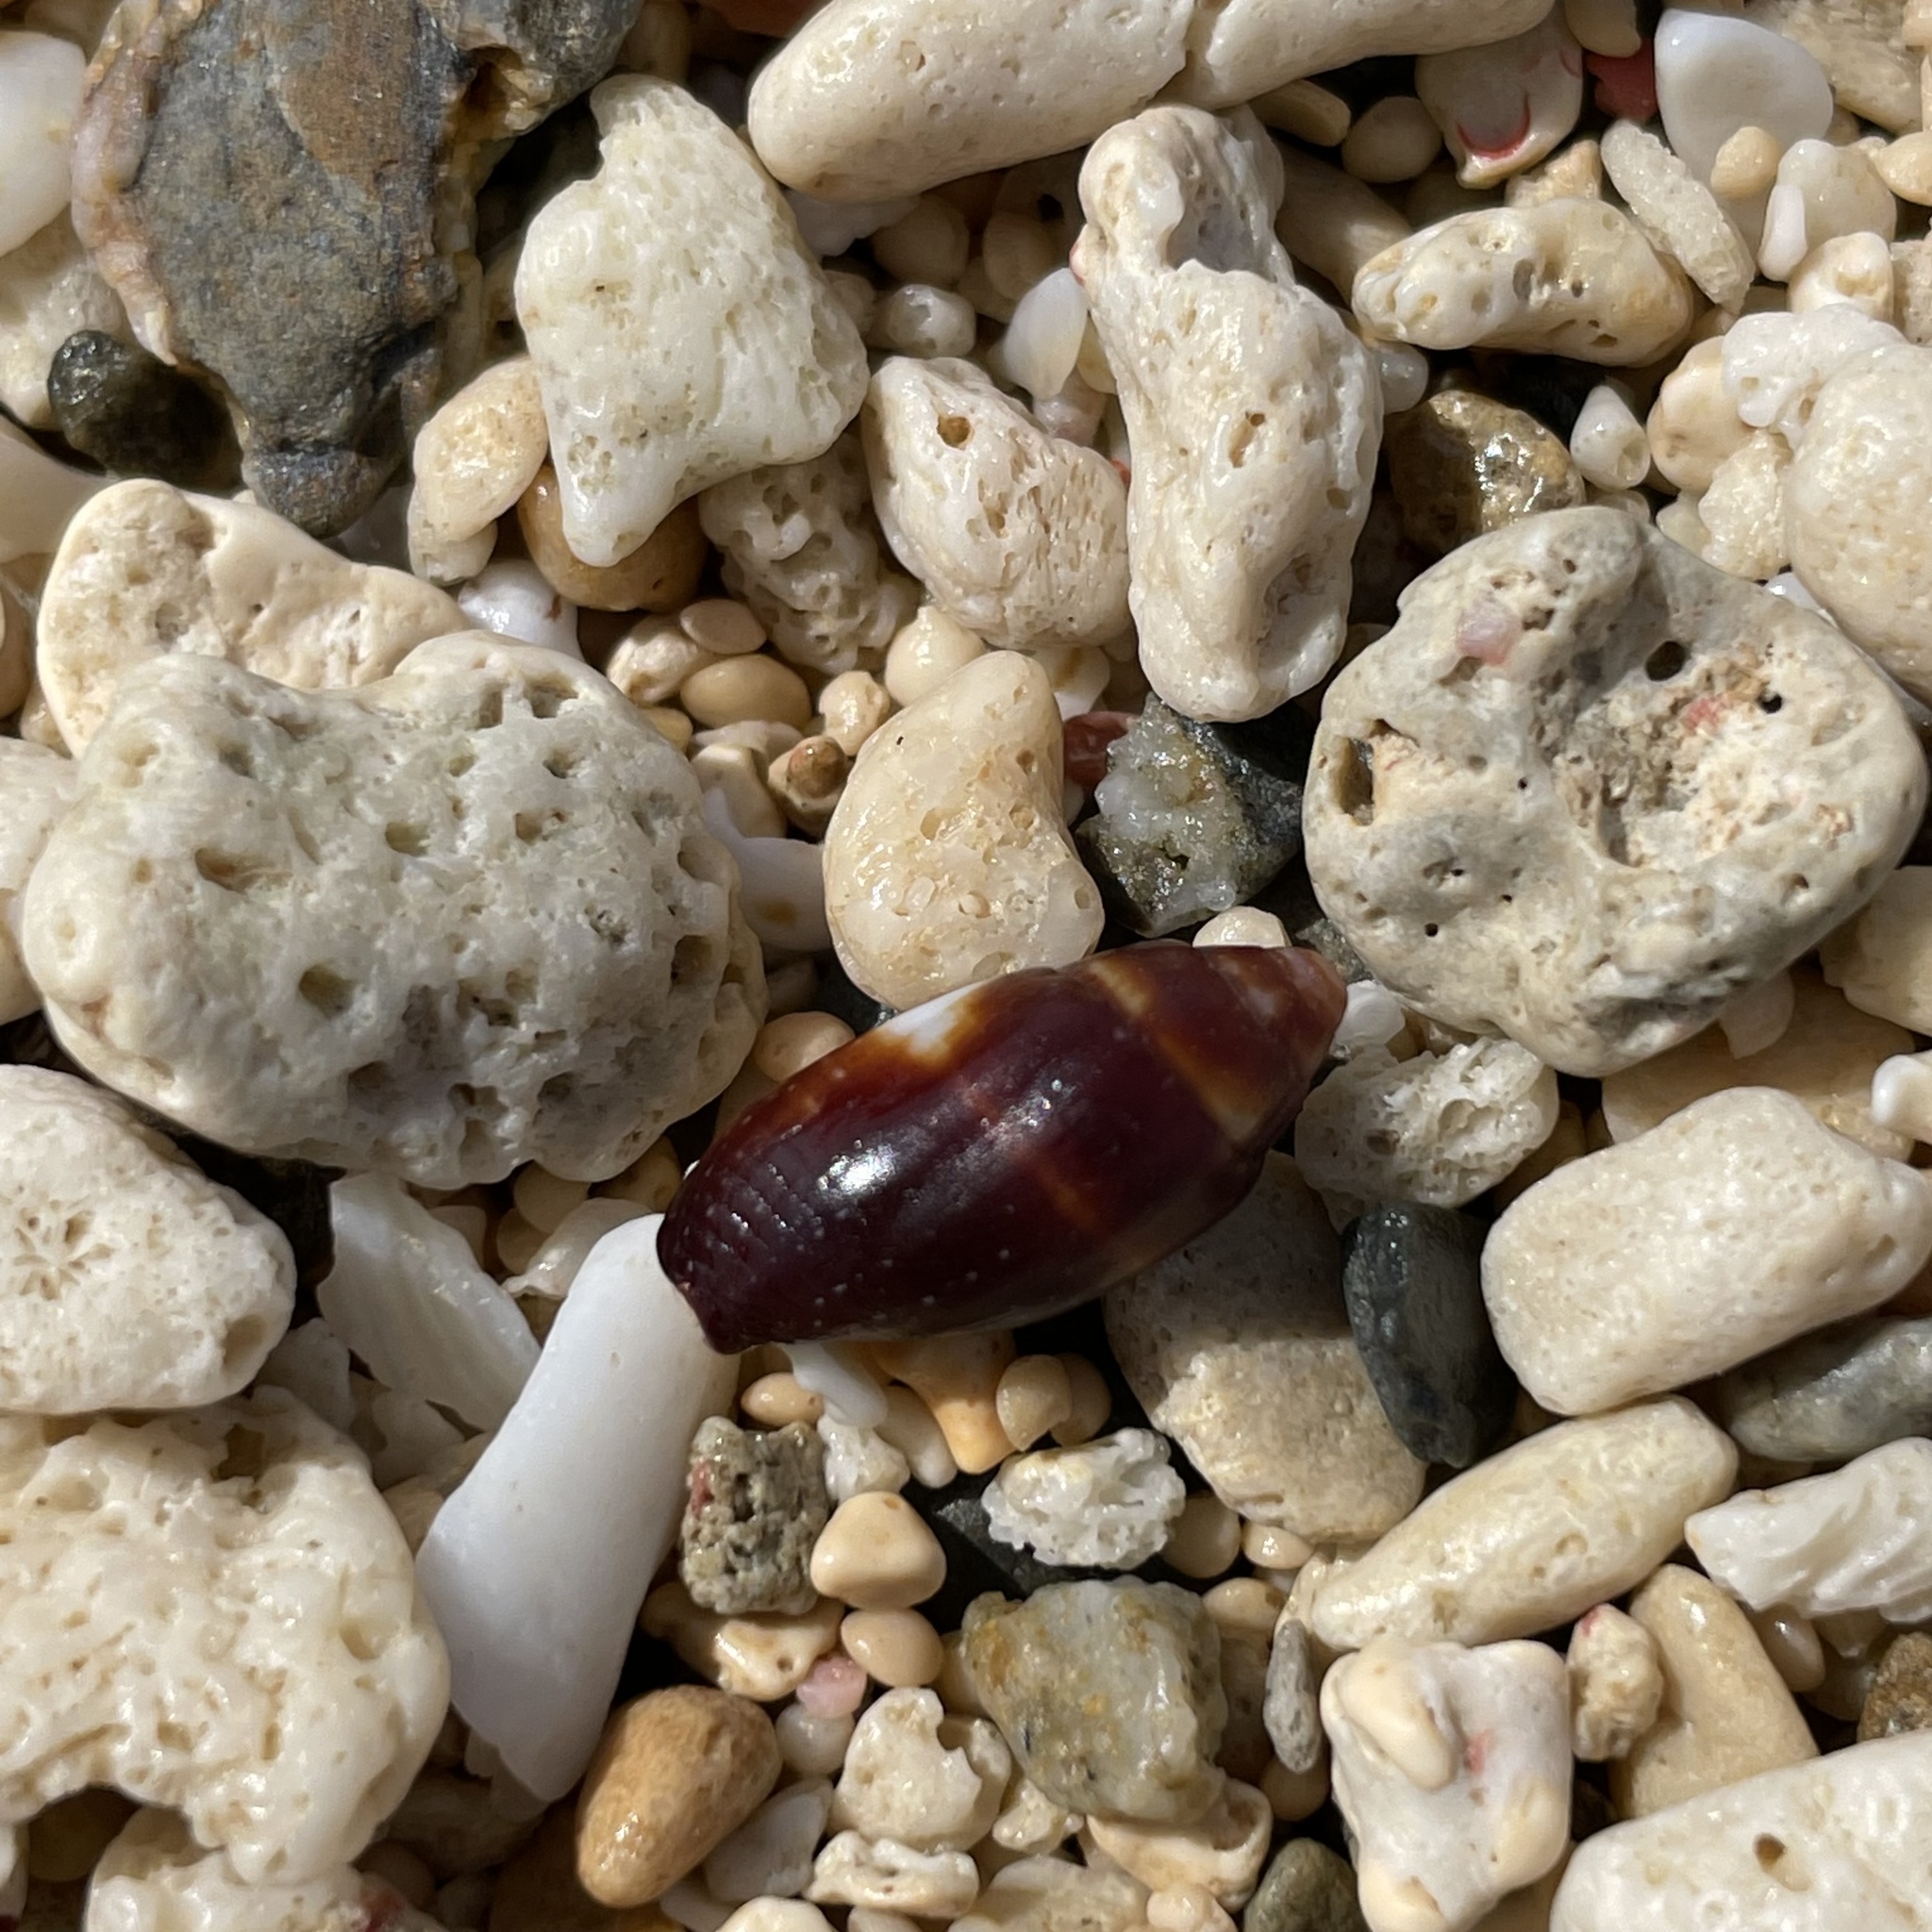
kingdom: Animalia
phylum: Mollusca
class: Gastropoda
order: Neogastropoda
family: Mitridae
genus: Strigatella
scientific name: Strigatella assimilis
